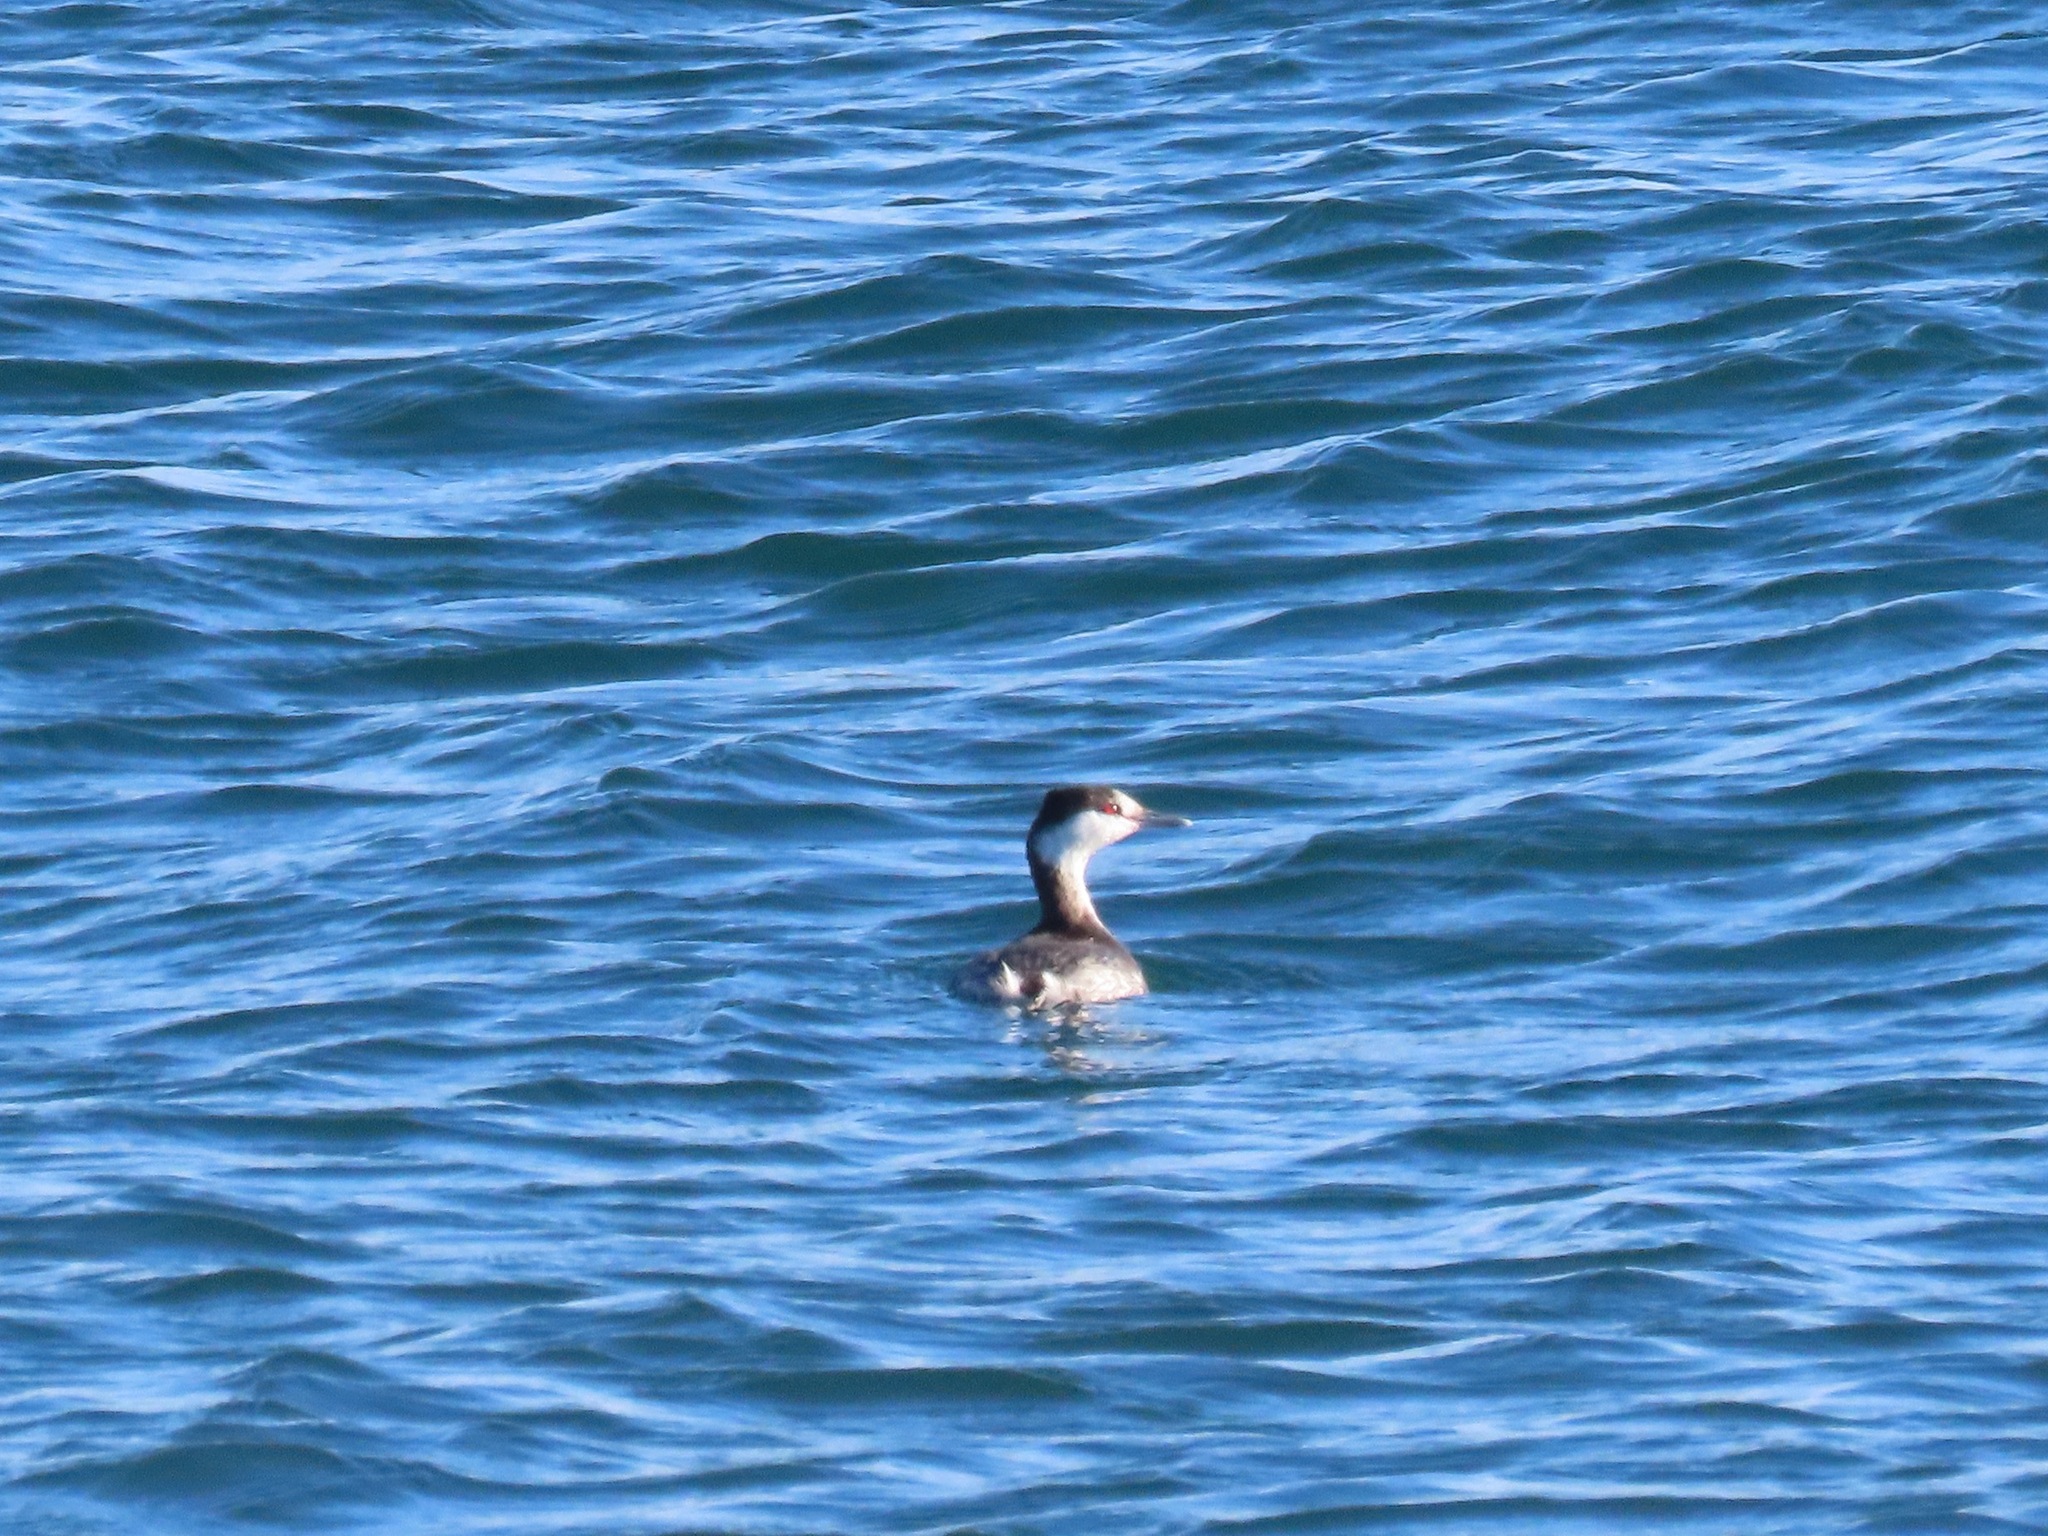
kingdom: Animalia
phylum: Chordata
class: Aves
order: Podicipediformes
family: Podicipedidae
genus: Podiceps
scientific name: Podiceps auritus
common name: Horned grebe
